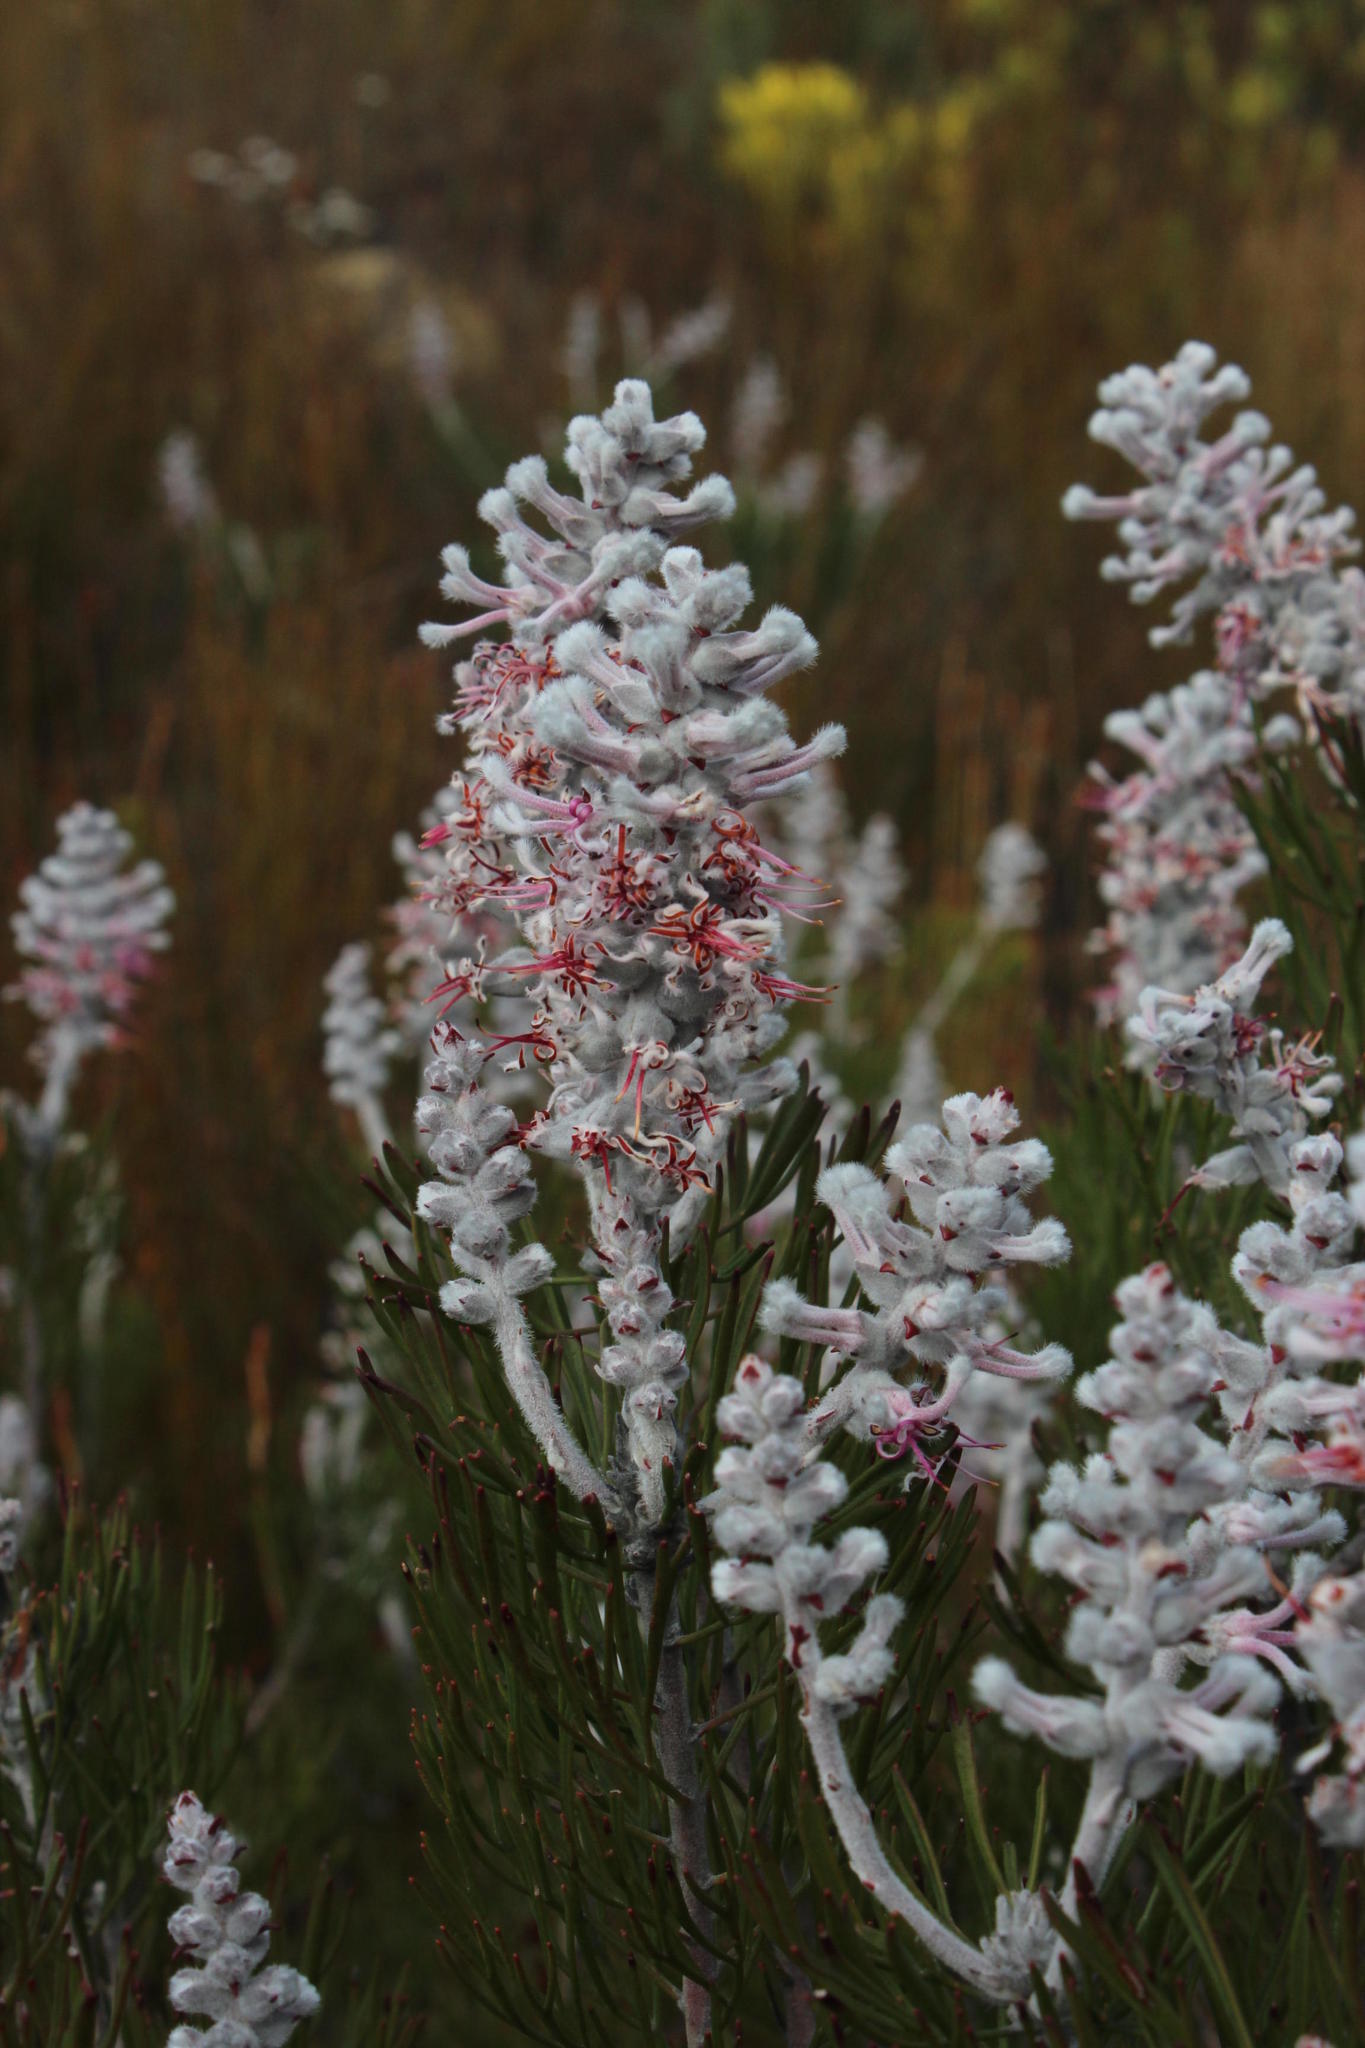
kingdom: Plantae
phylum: Tracheophyta
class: Magnoliopsida
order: Proteales
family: Proteaceae
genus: Paranomus
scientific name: Paranomus dispersus
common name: Long-head sceptre
